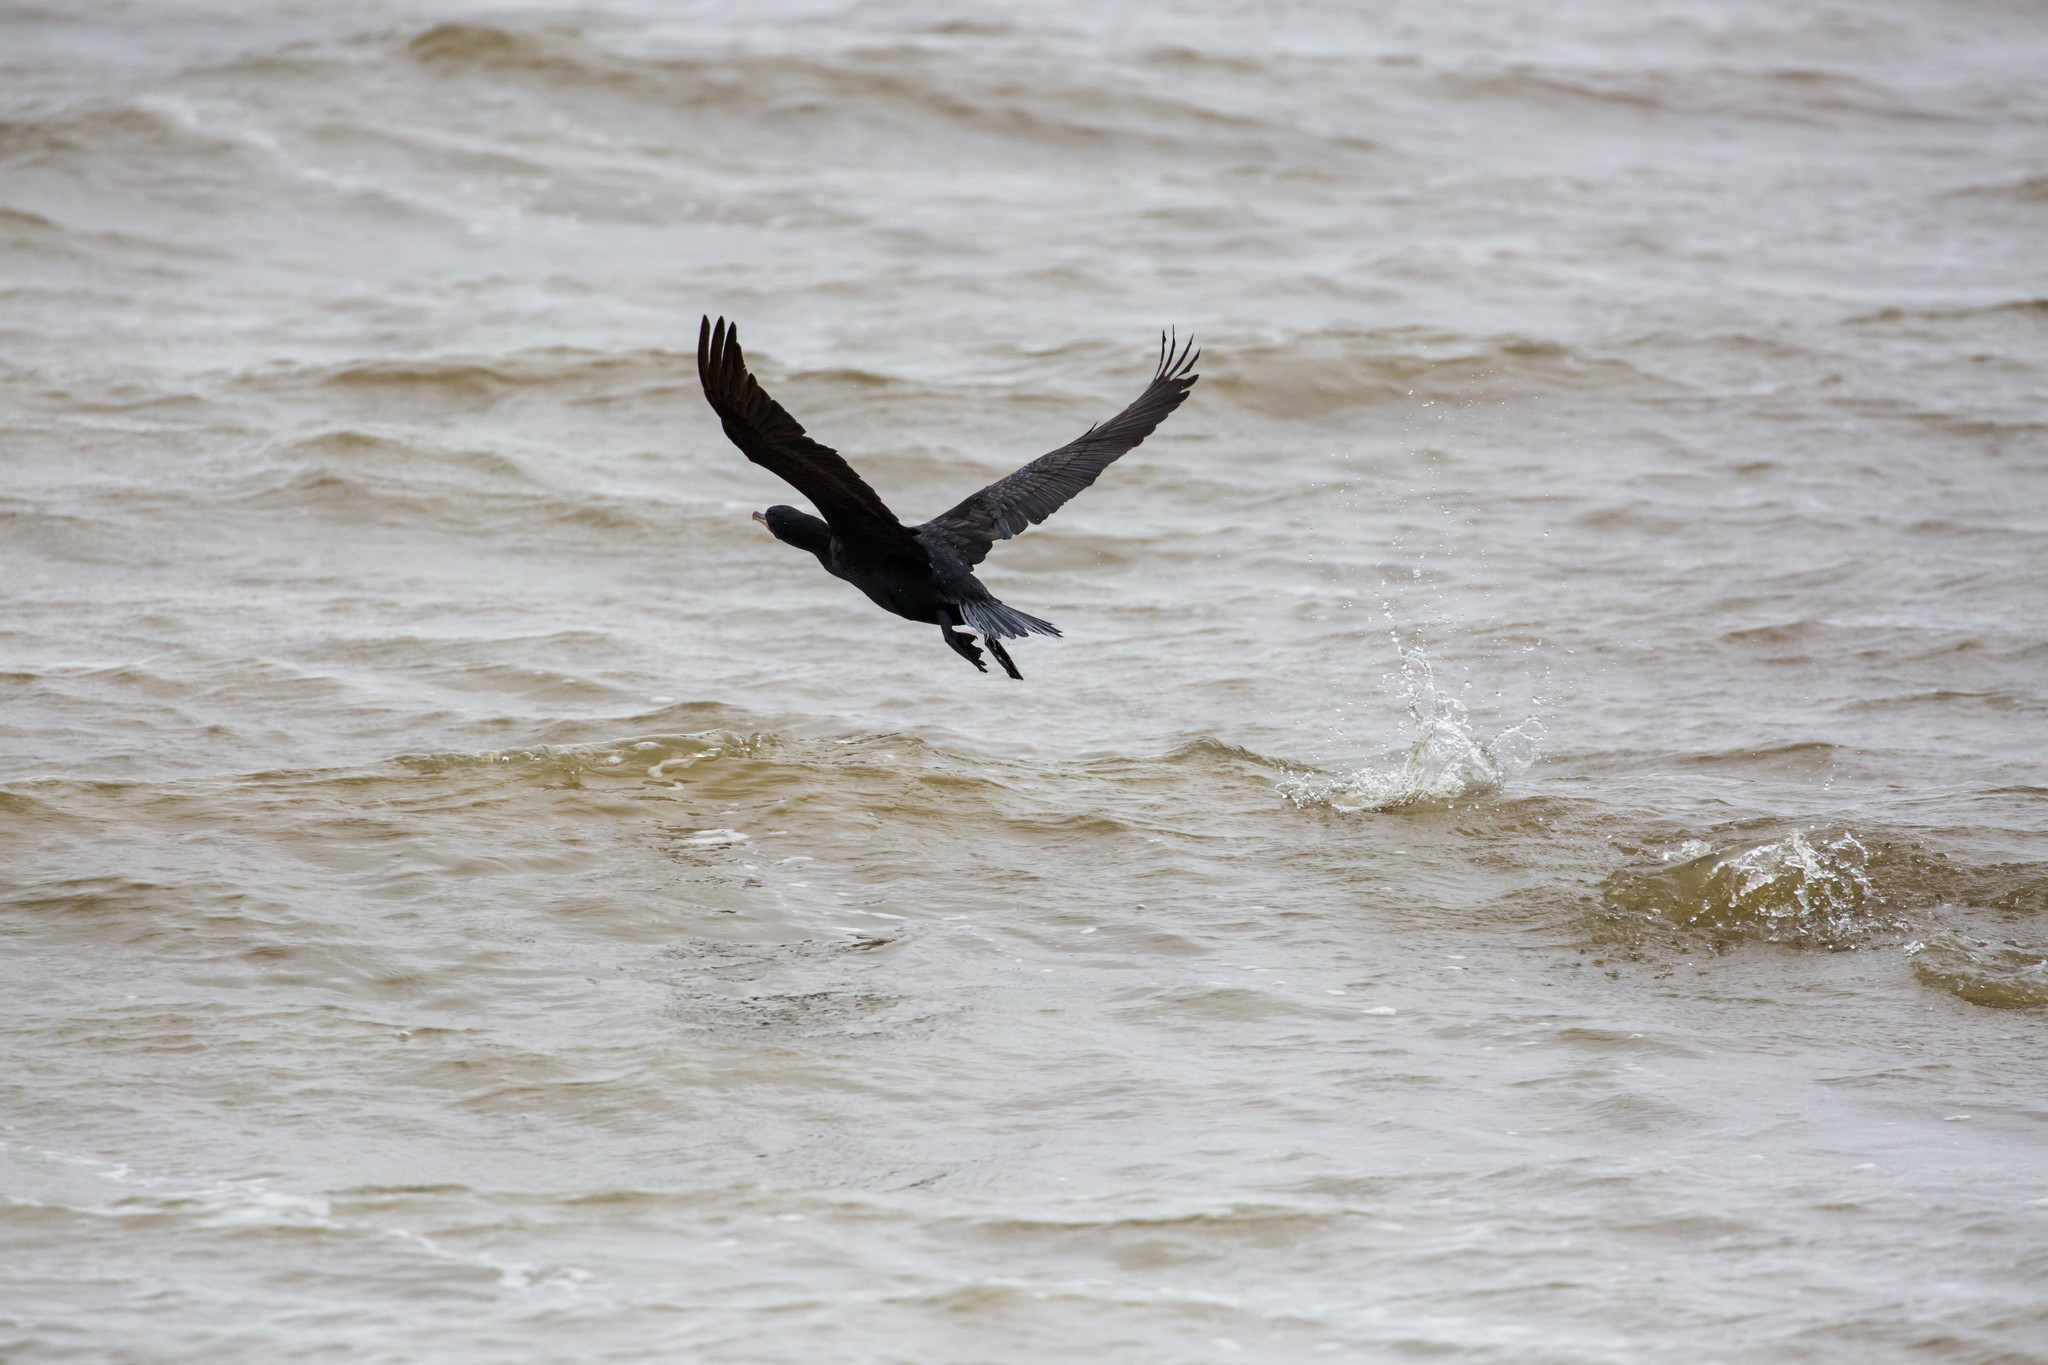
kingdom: Animalia
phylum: Chordata
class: Aves
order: Suliformes
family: Phalacrocoracidae
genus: Phalacrocorax
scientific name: Phalacrocorax auritus
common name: Double-crested cormorant
